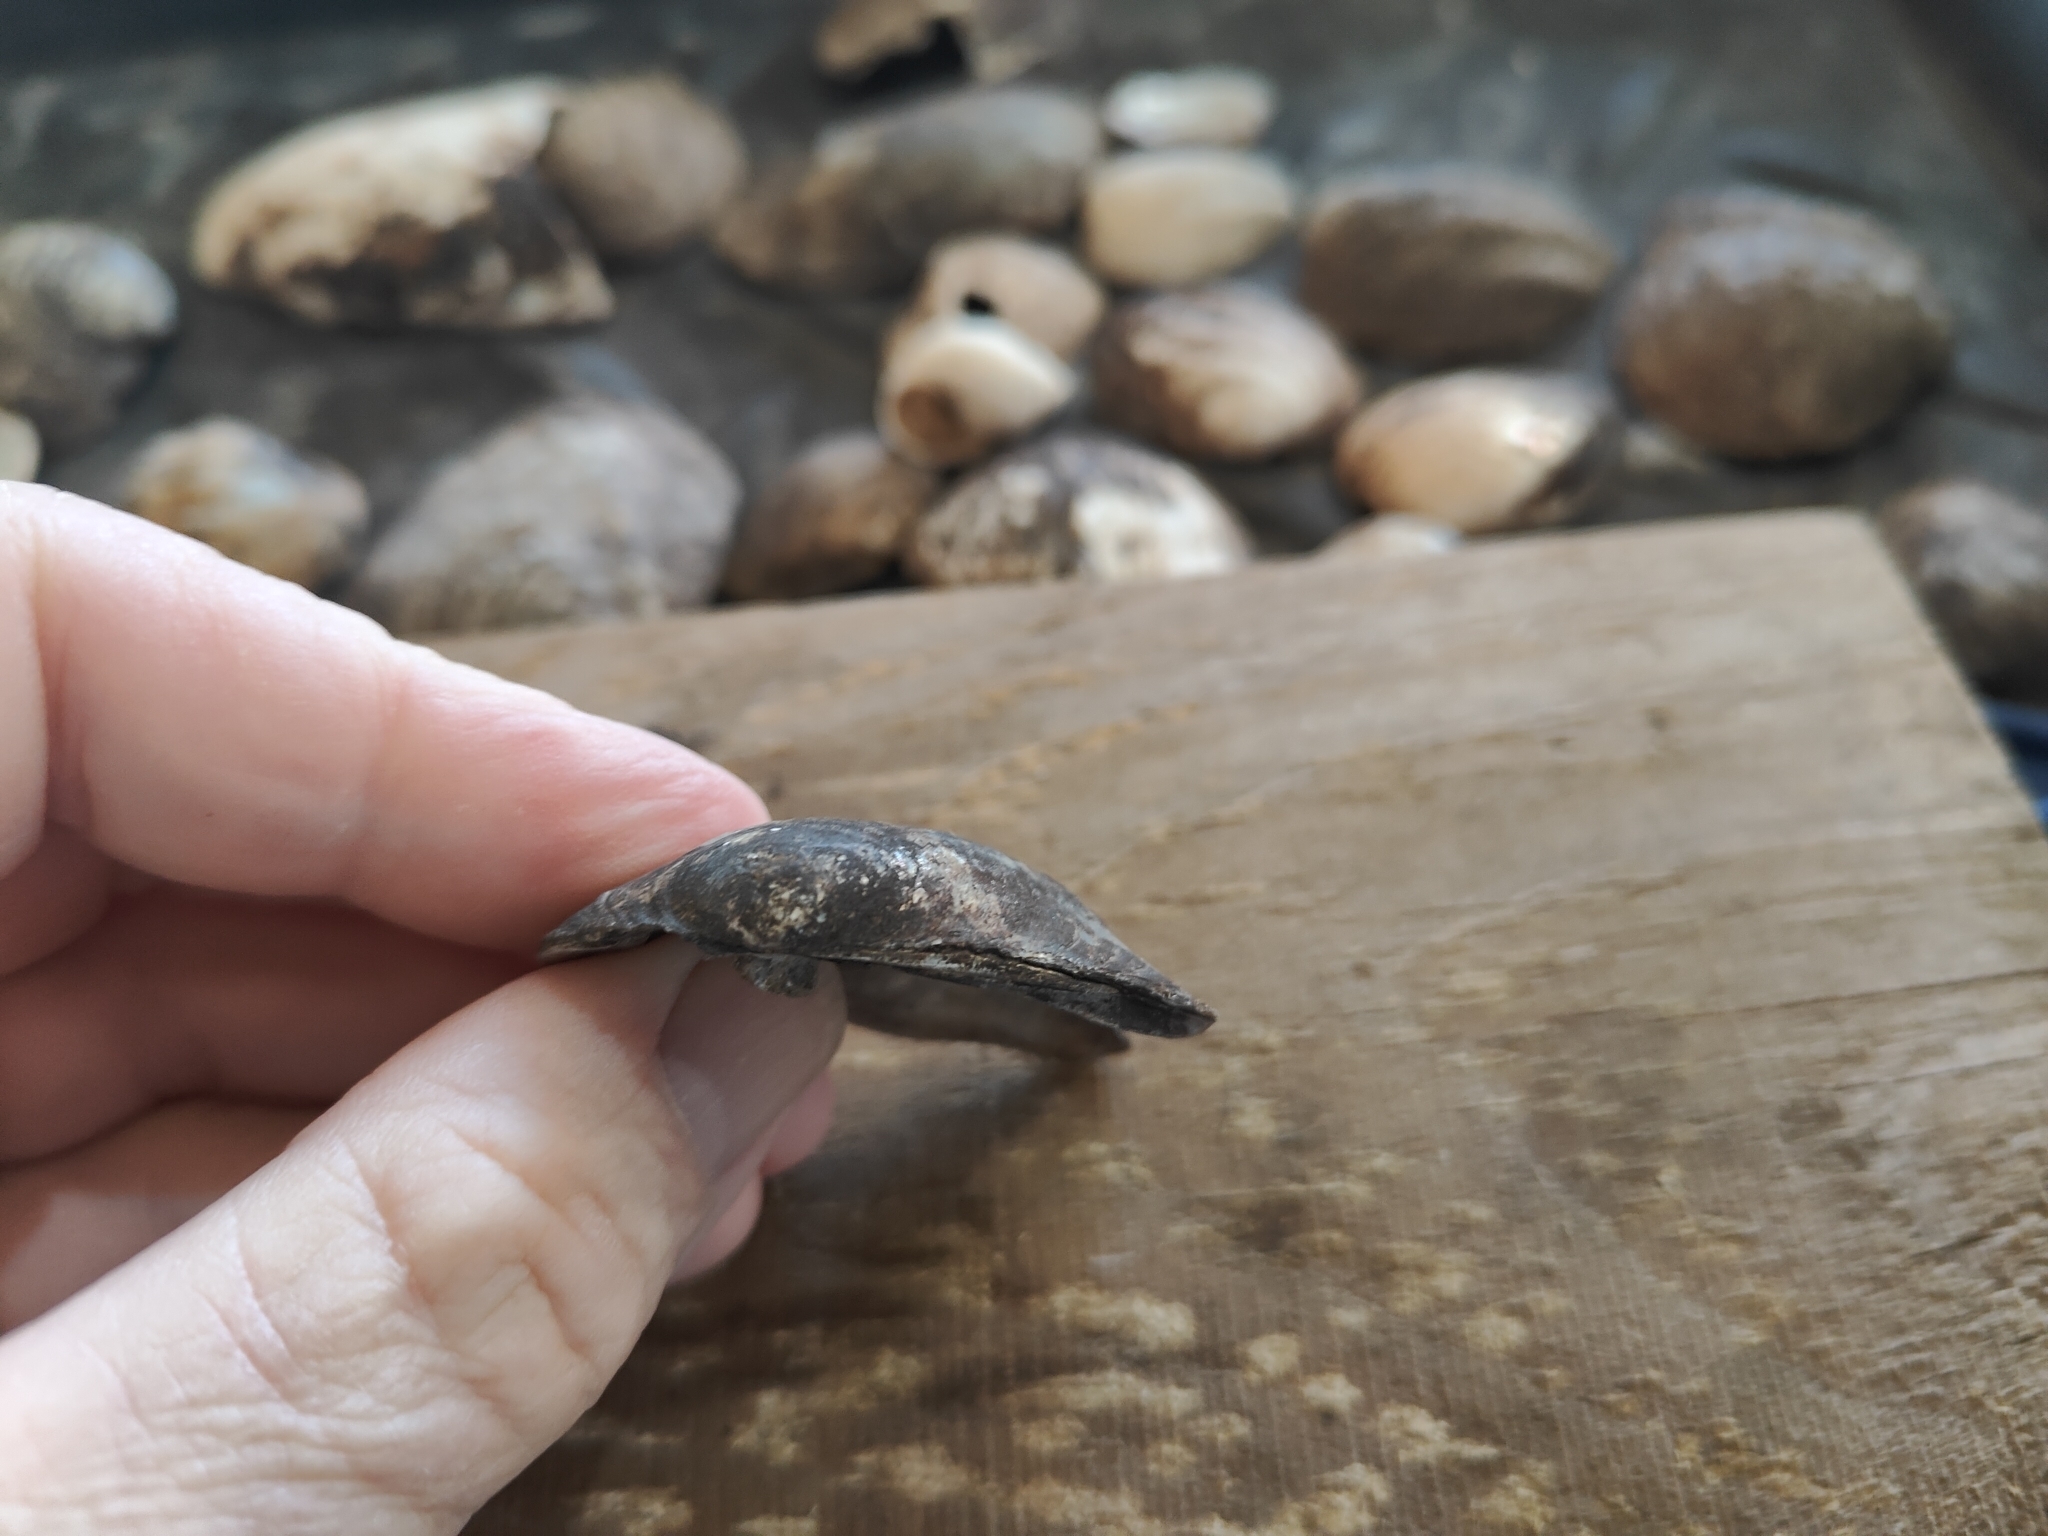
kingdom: Animalia
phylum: Mollusca
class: Bivalvia
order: Unionida
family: Unionidae
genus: Amblema
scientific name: Amblema plicata
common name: Threeridge
